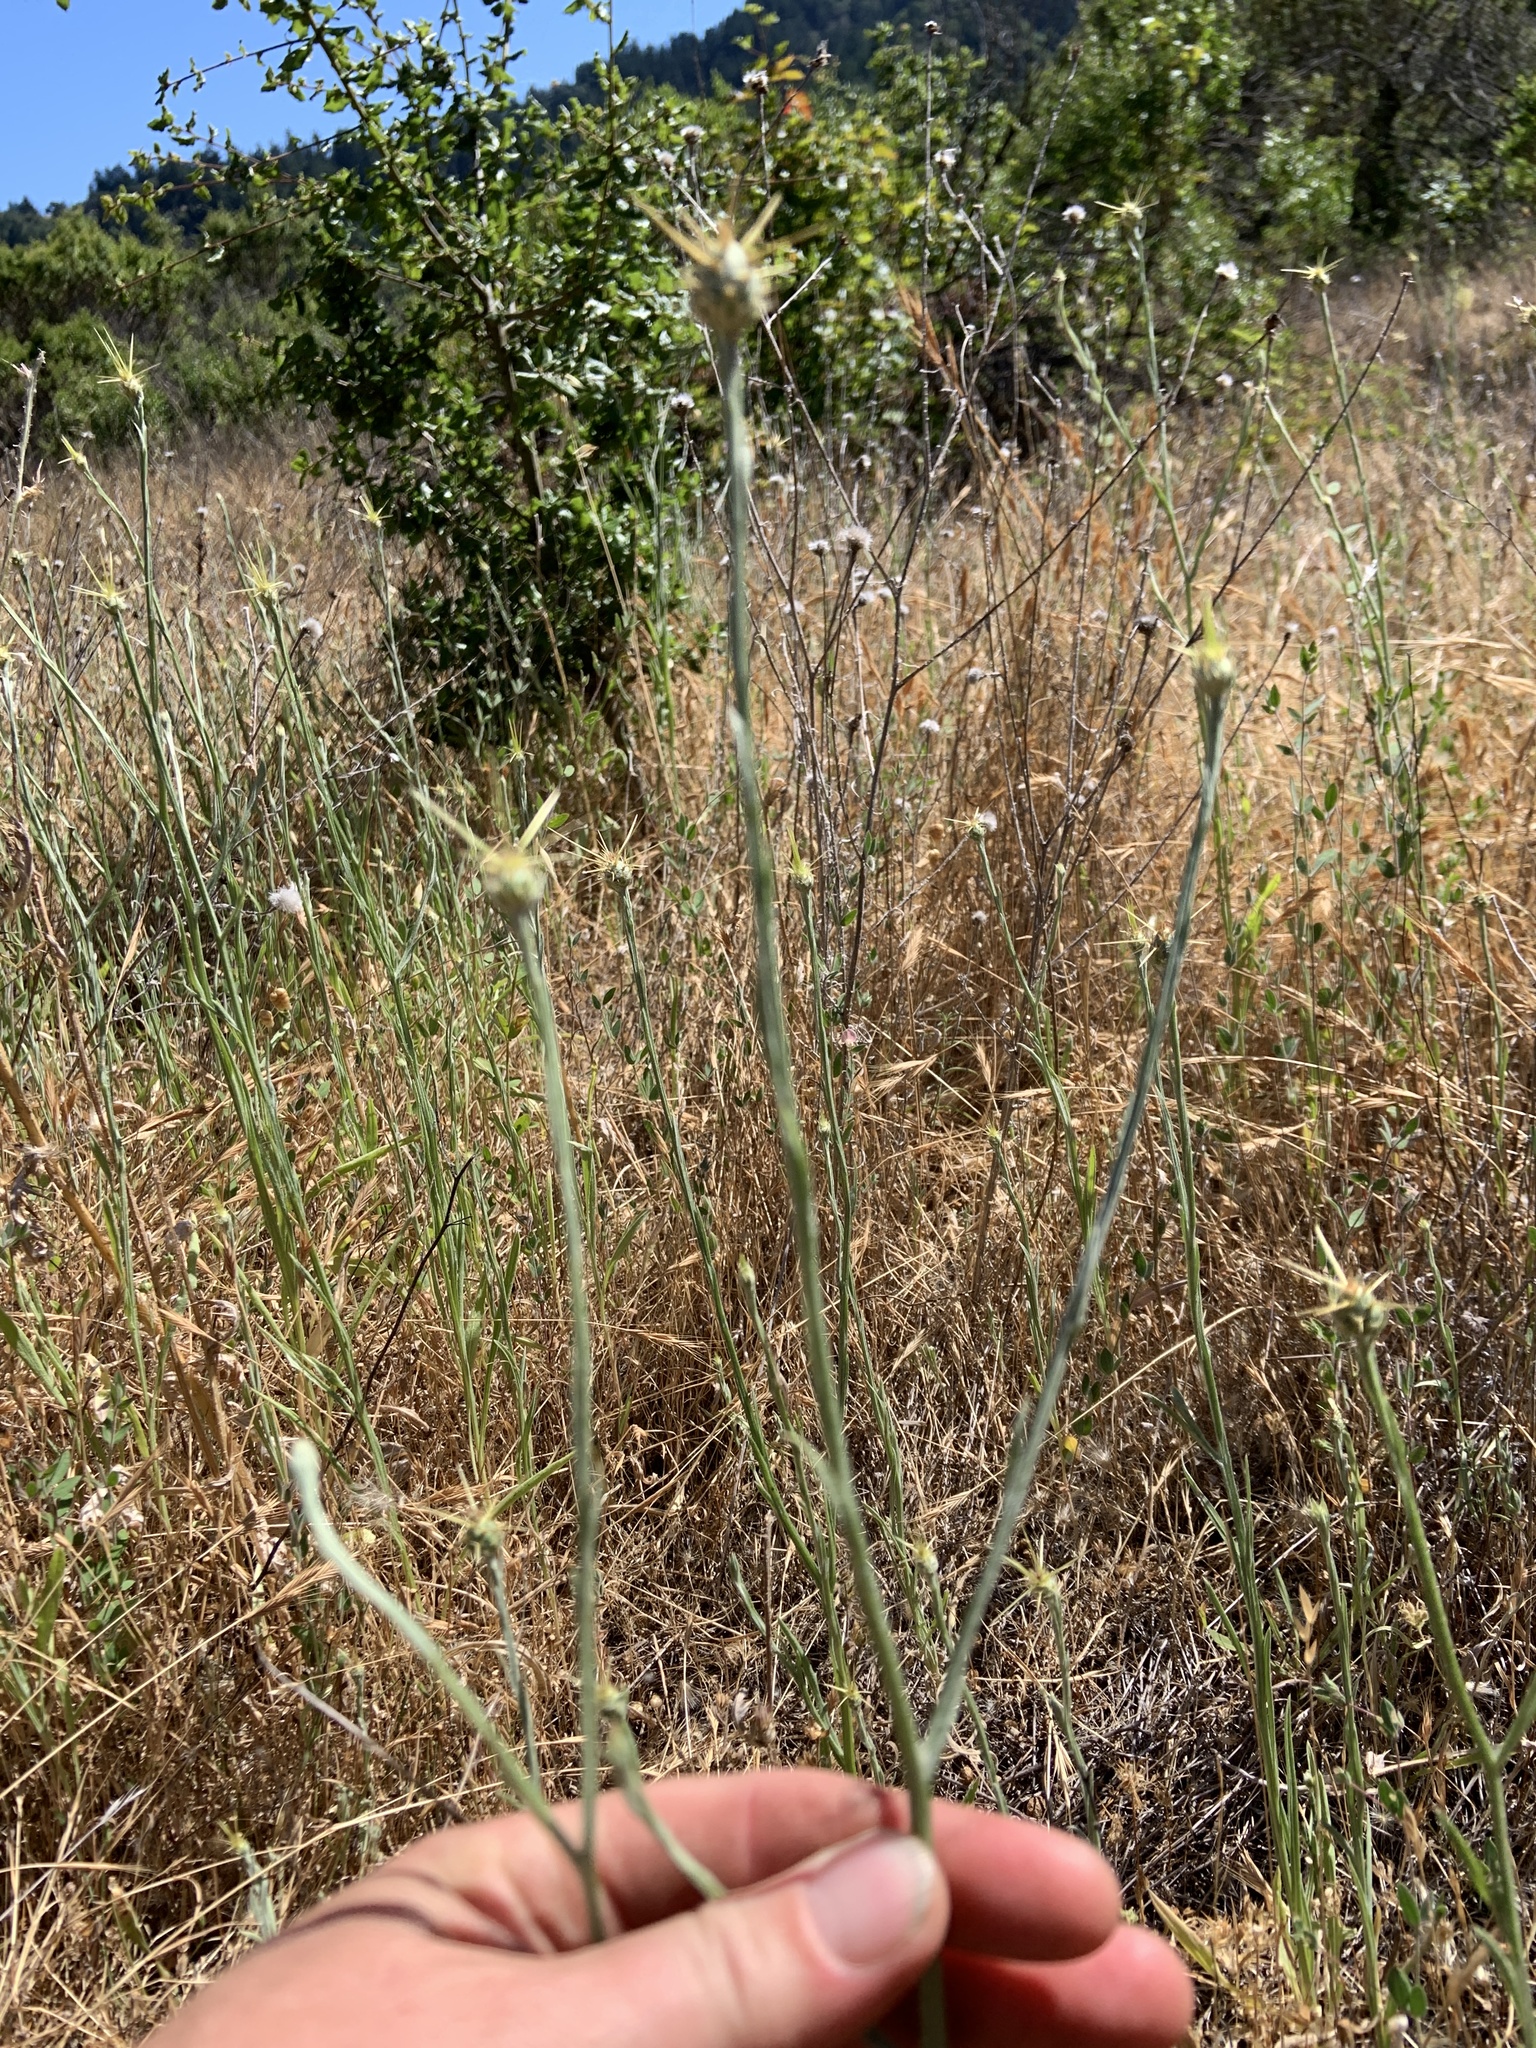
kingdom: Plantae
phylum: Tracheophyta
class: Magnoliopsida
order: Asterales
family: Asteraceae
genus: Centaurea
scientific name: Centaurea solstitialis
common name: Yellow star-thistle
